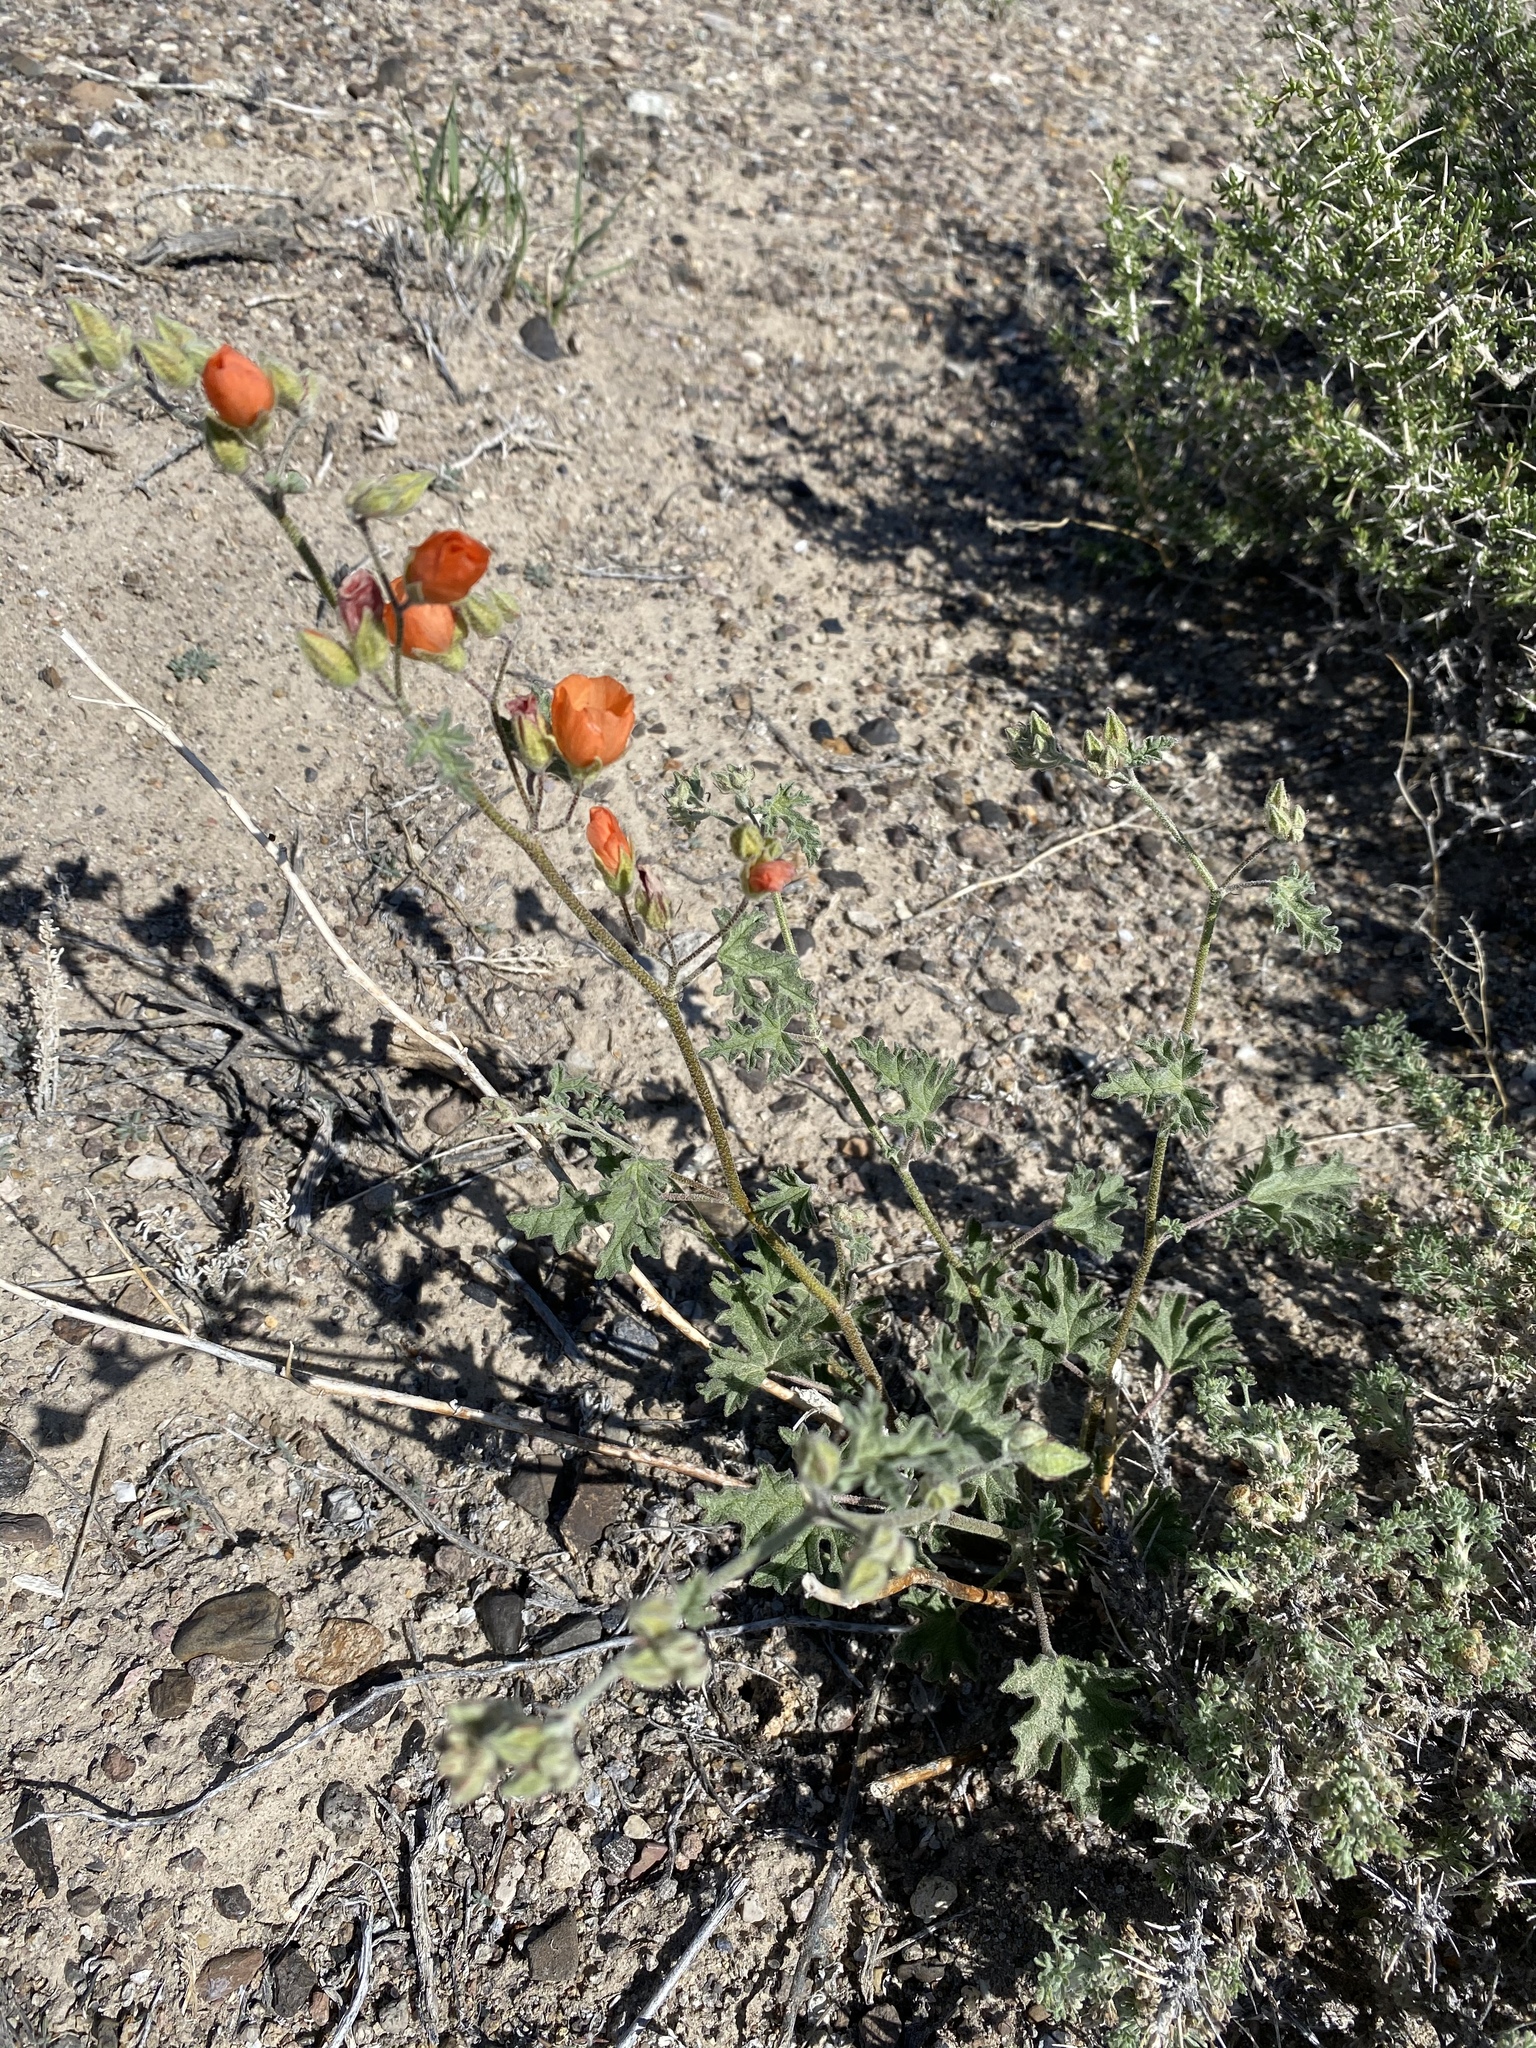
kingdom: Plantae
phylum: Tracheophyta
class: Magnoliopsida
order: Malvales
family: Malvaceae
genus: Sphaeralcea
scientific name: Sphaeralcea grossulariifolia
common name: Current-leaf globe-mallow
